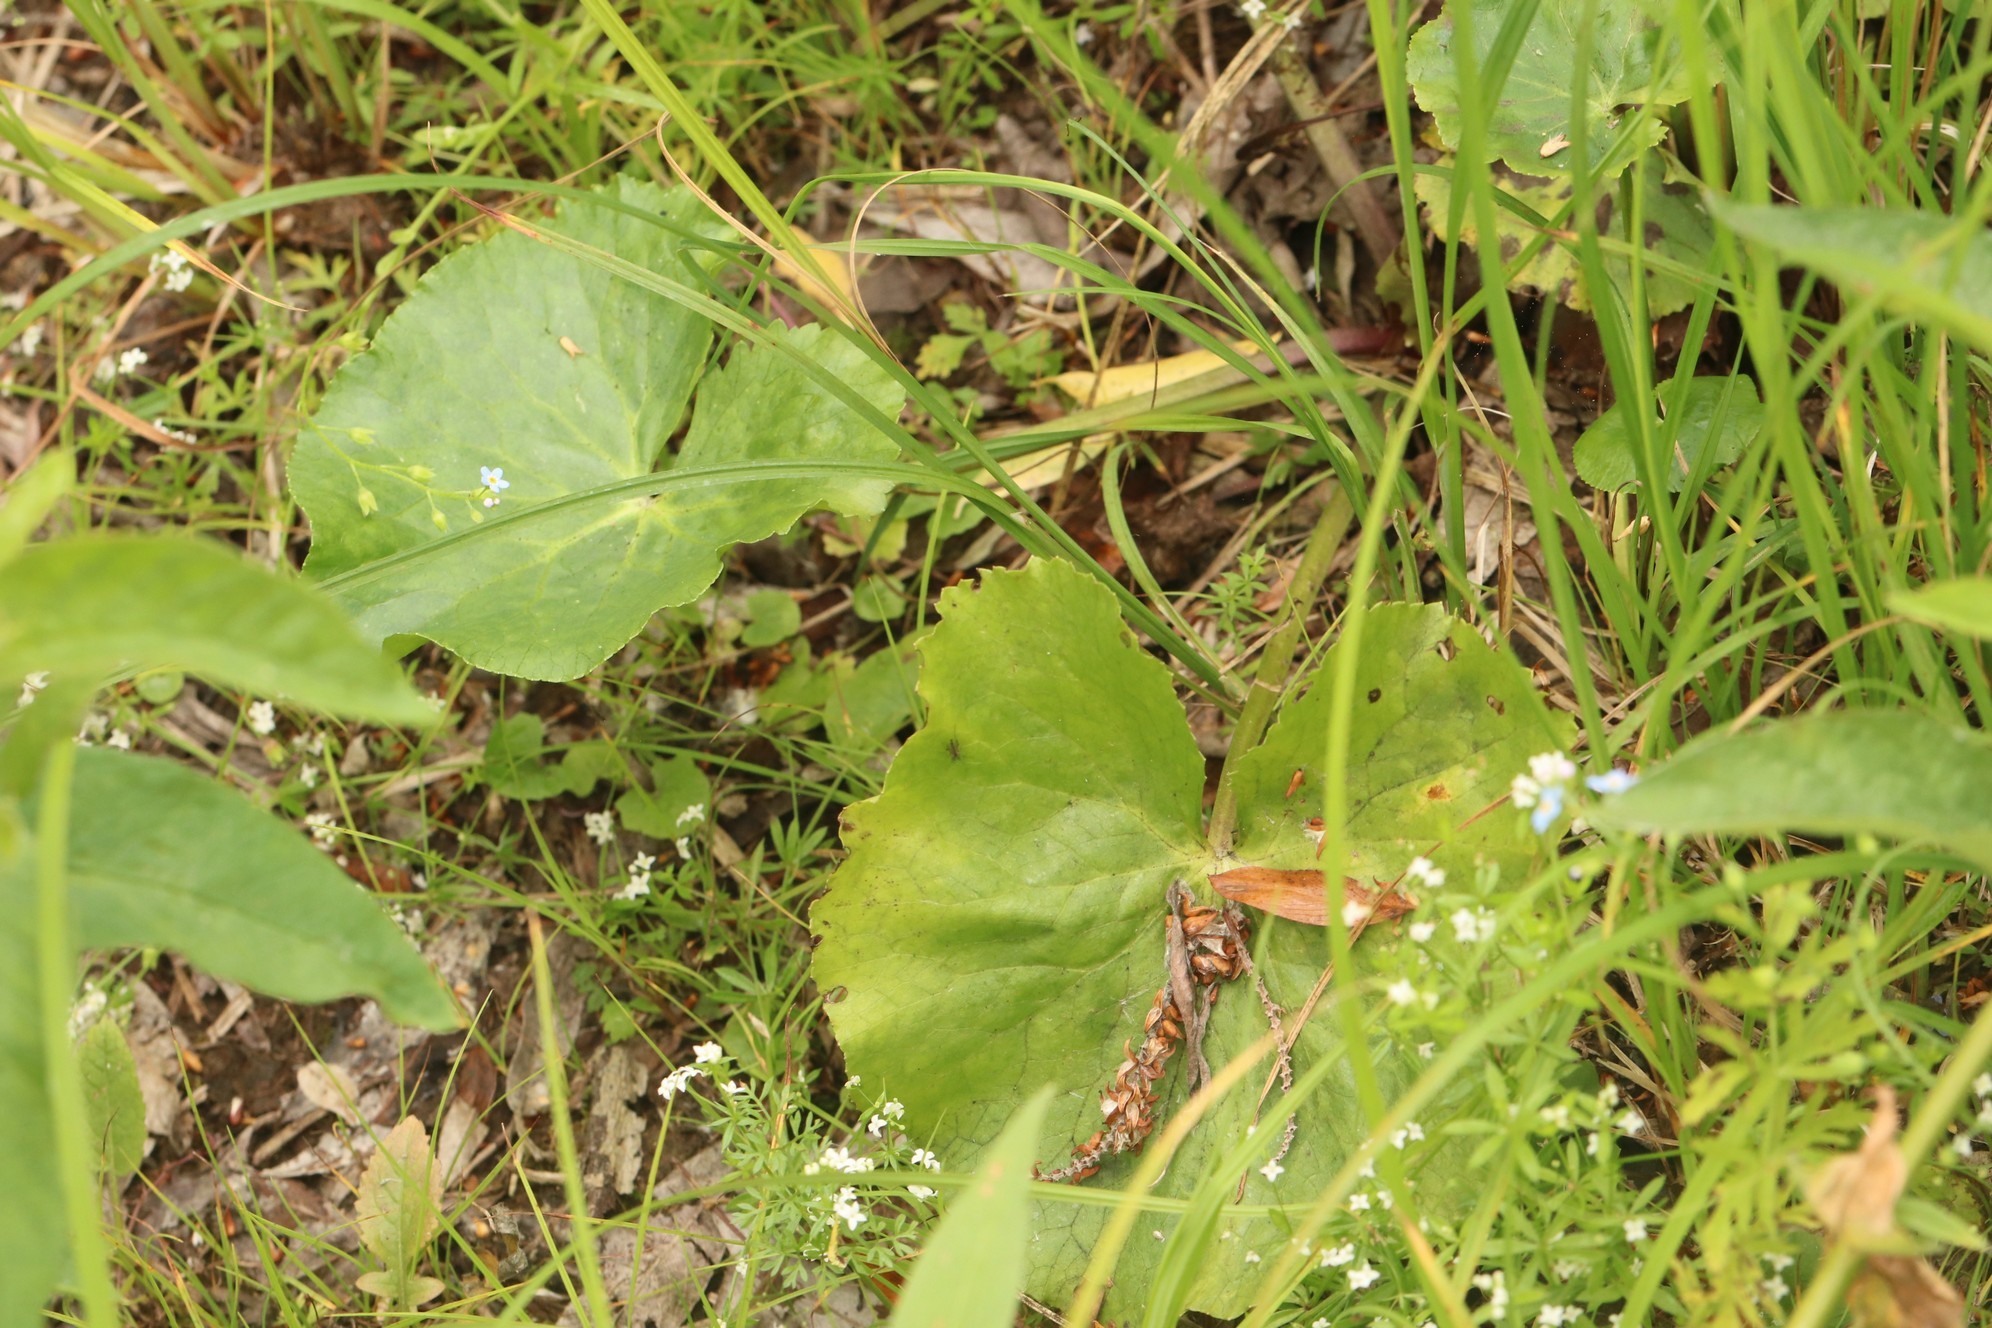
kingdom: Plantae
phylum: Tracheophyta
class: Magnoliopsida
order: Ranunculales
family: Ranunculaceae
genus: Caltha
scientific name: Caltha palustris
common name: Marsh marigold
